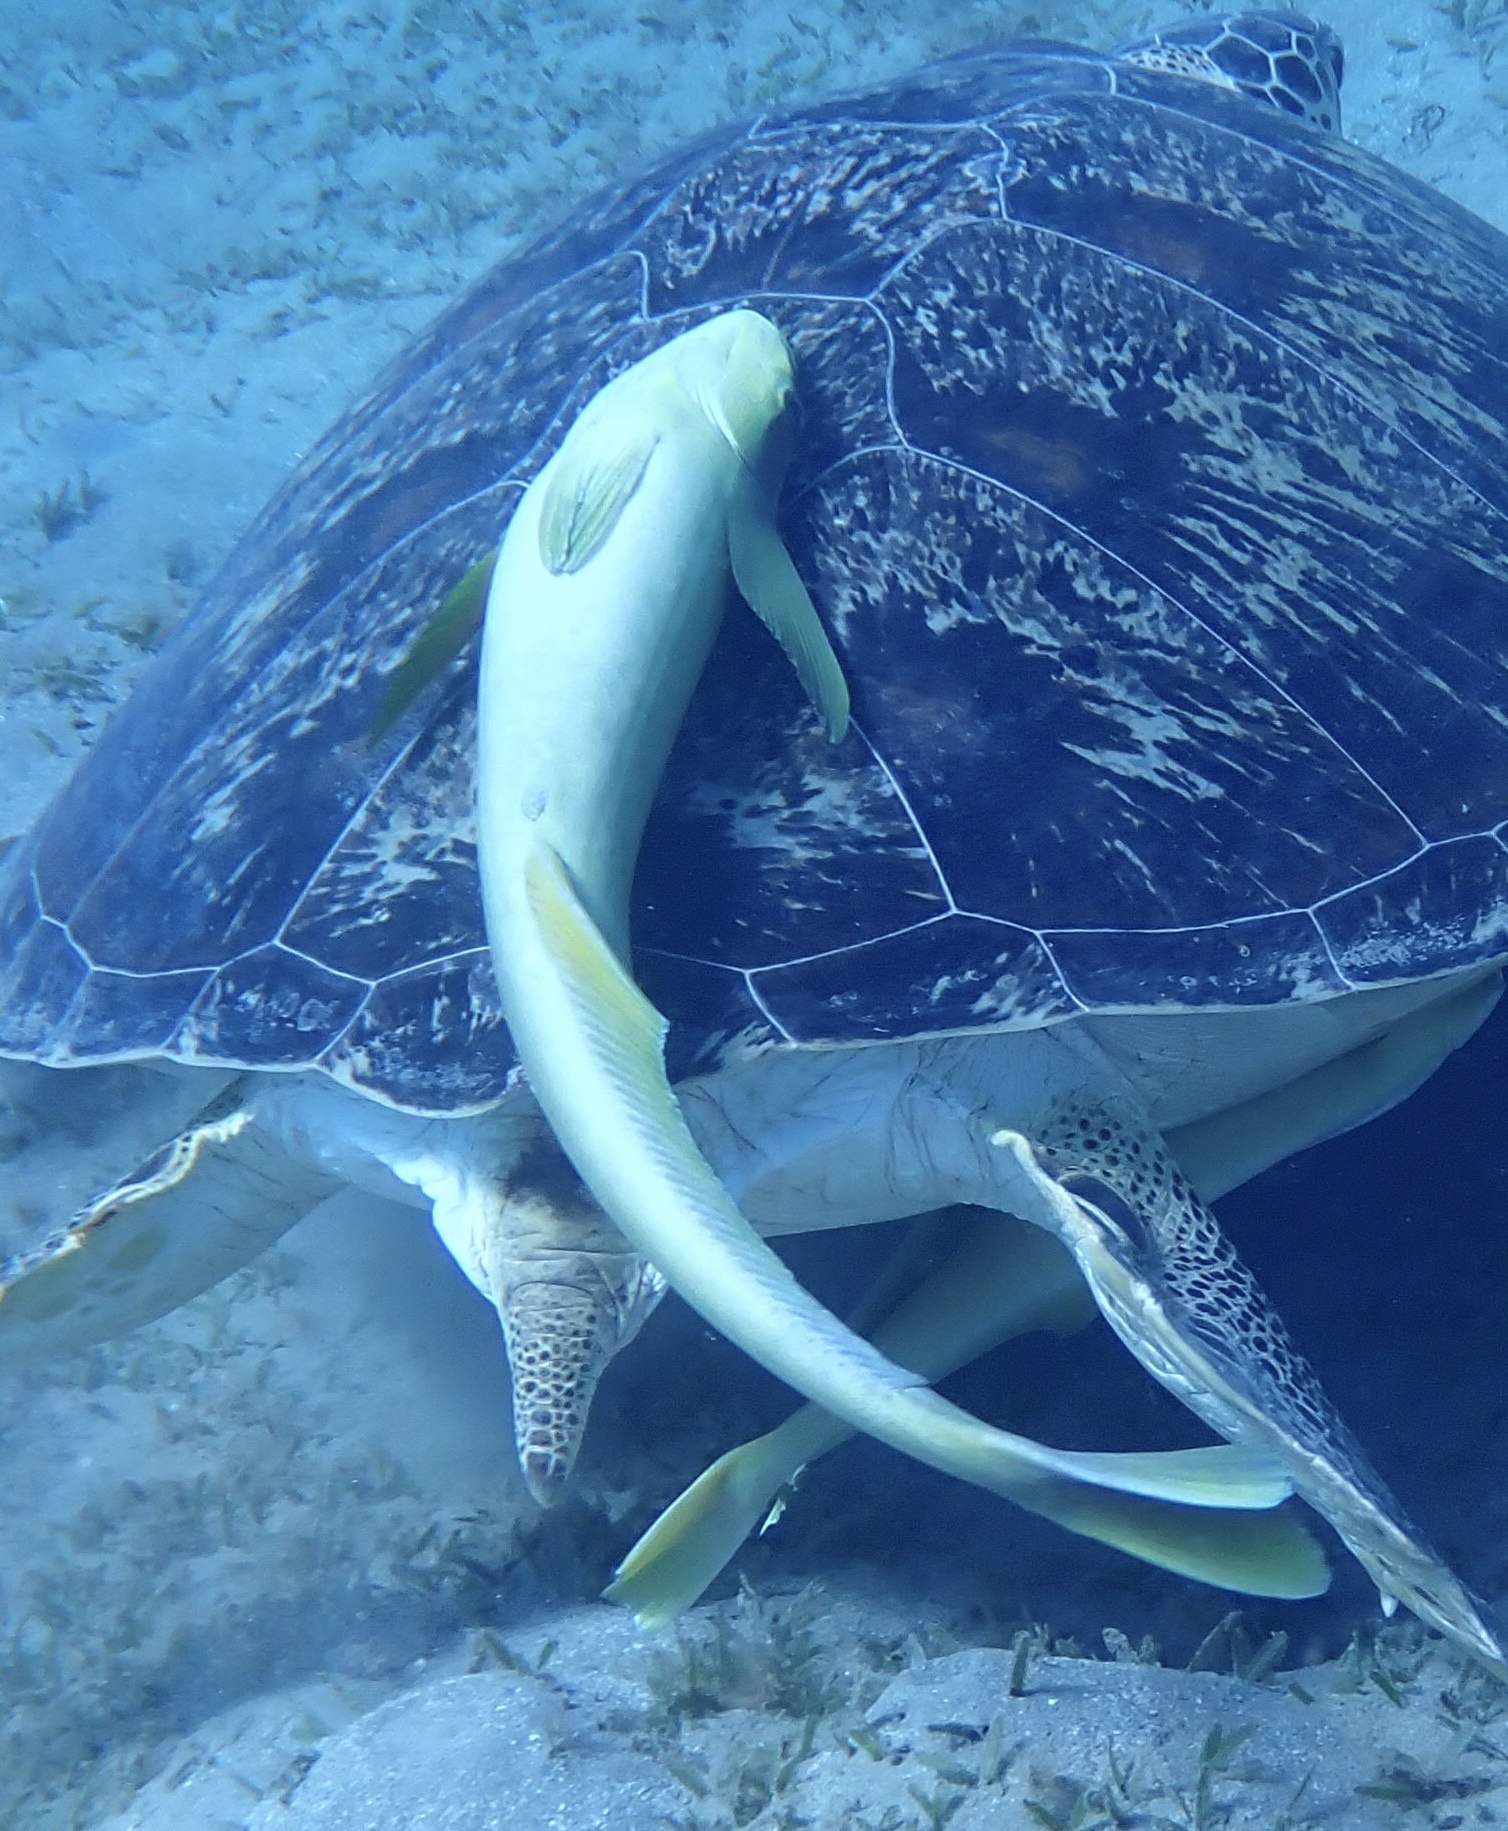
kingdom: Animalia
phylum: Chordata
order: Perciformes
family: Echeneidae
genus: Echeneis
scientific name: Echeneis naucrates
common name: Sharksucker
